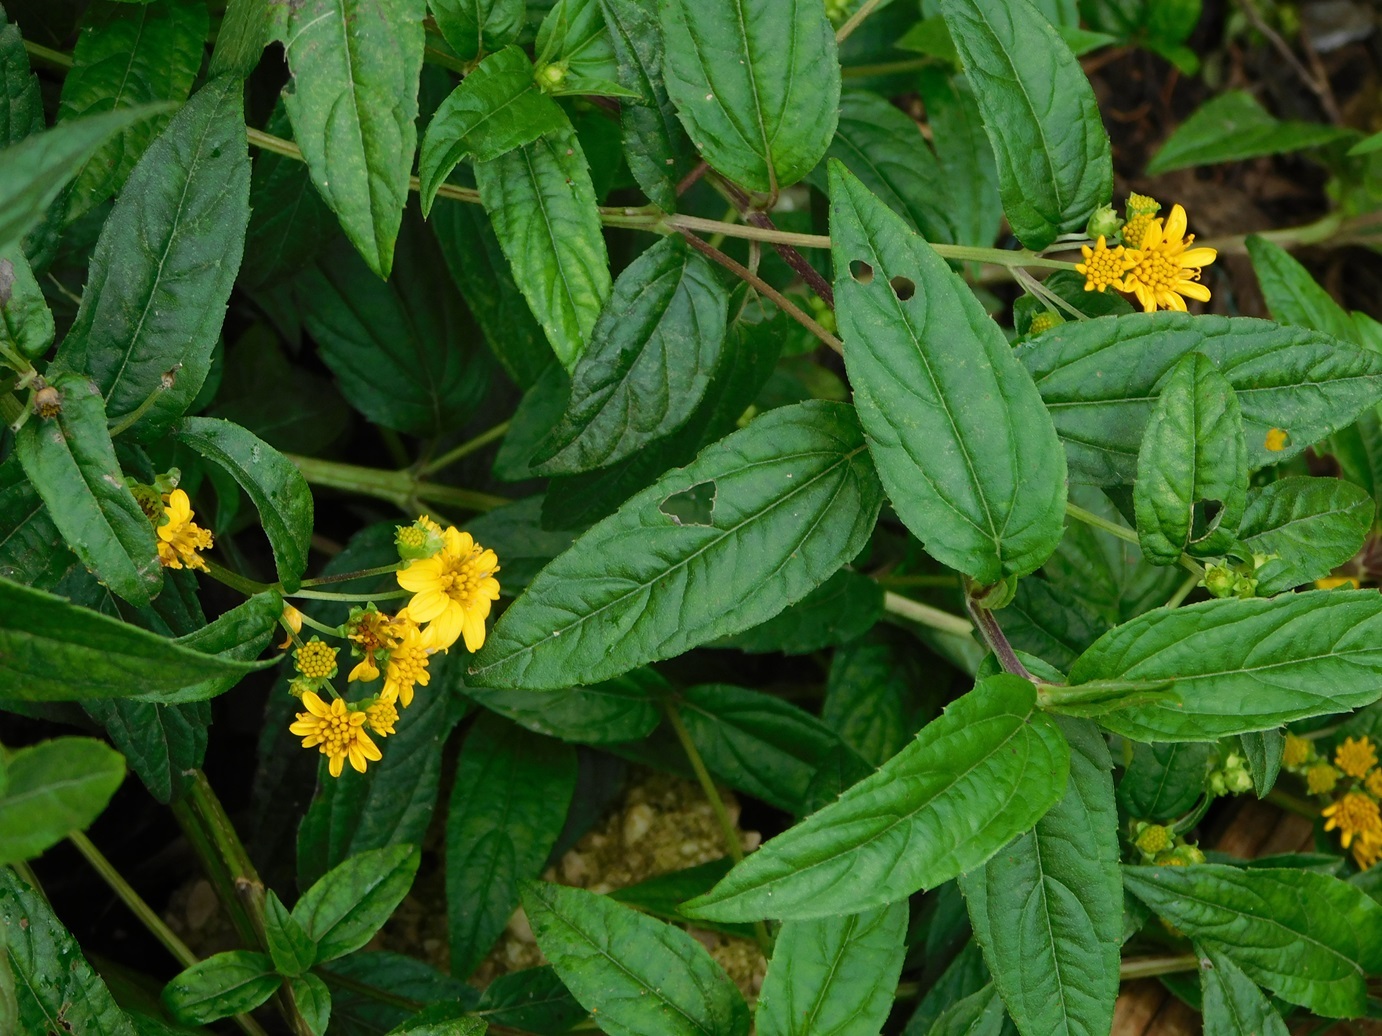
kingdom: Plantae
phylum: Tracheophyta
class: Magnoliopsida
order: Asterales
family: Asteraceae
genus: Perymenium
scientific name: Perymenium ghiesbreghtii
